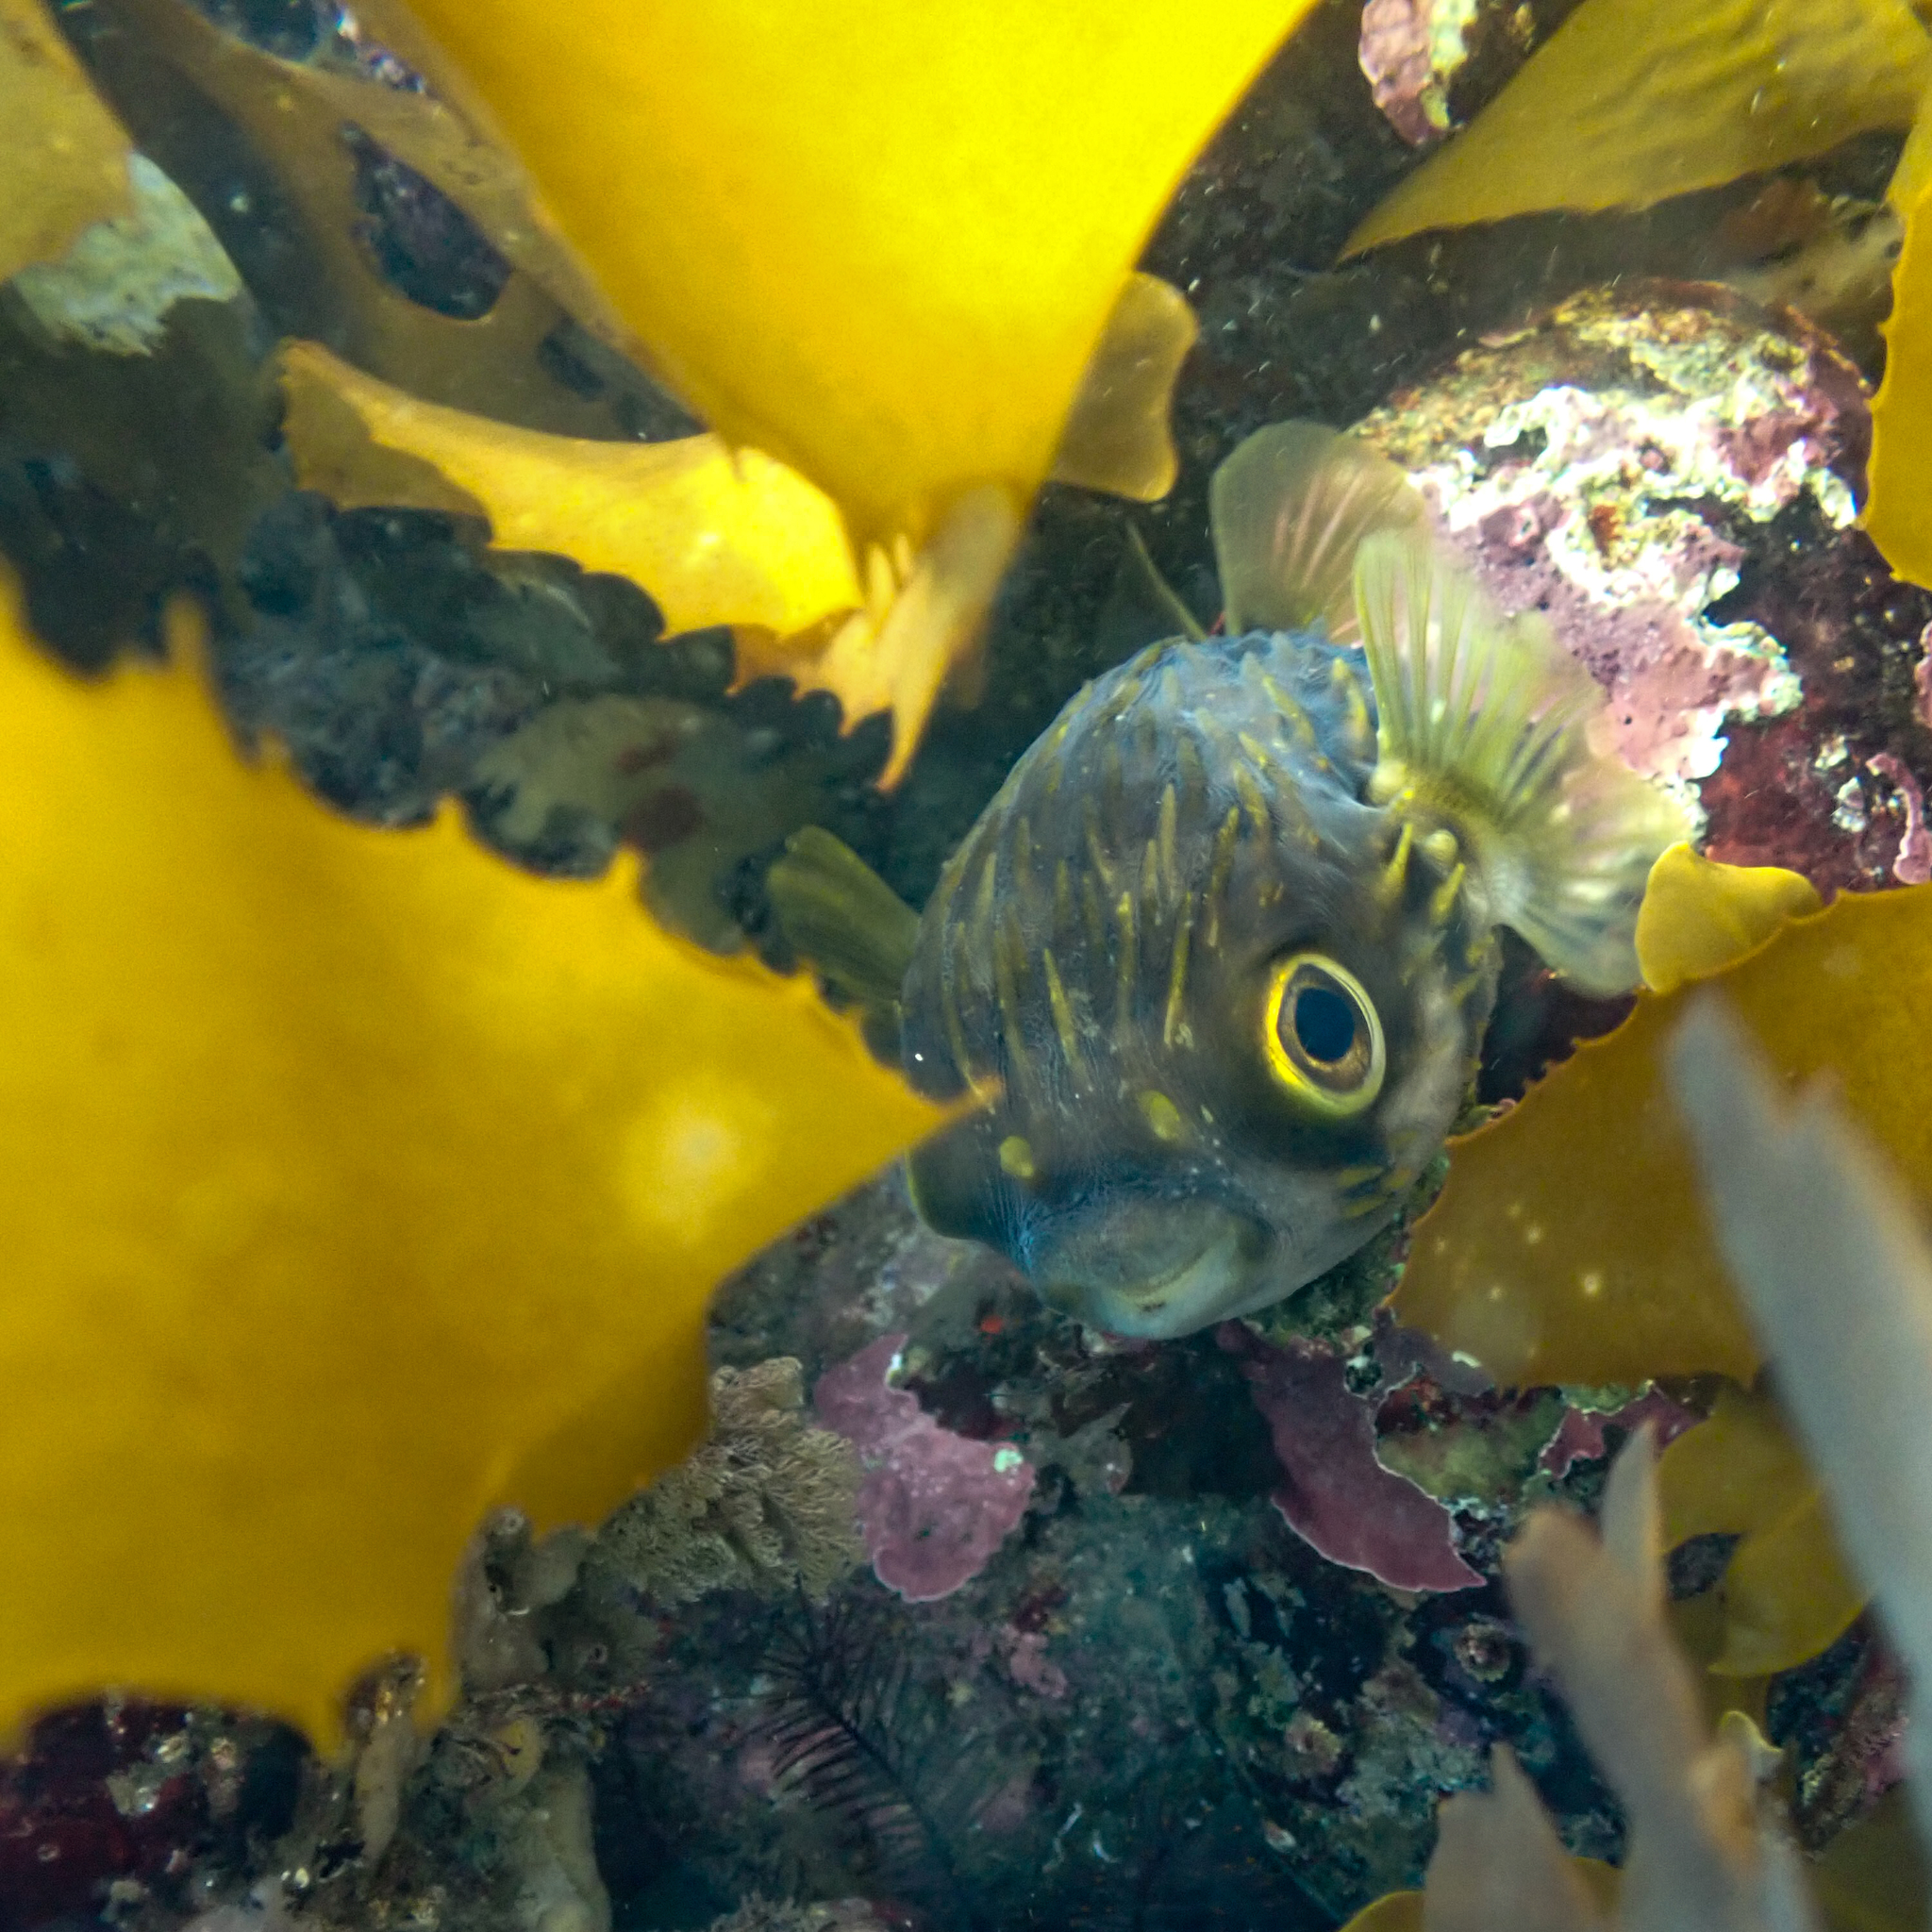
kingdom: Animalia
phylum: Chordata
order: Tetraodontiformes
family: Diodontidae
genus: Diodon
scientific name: Diodon nicthemerus
